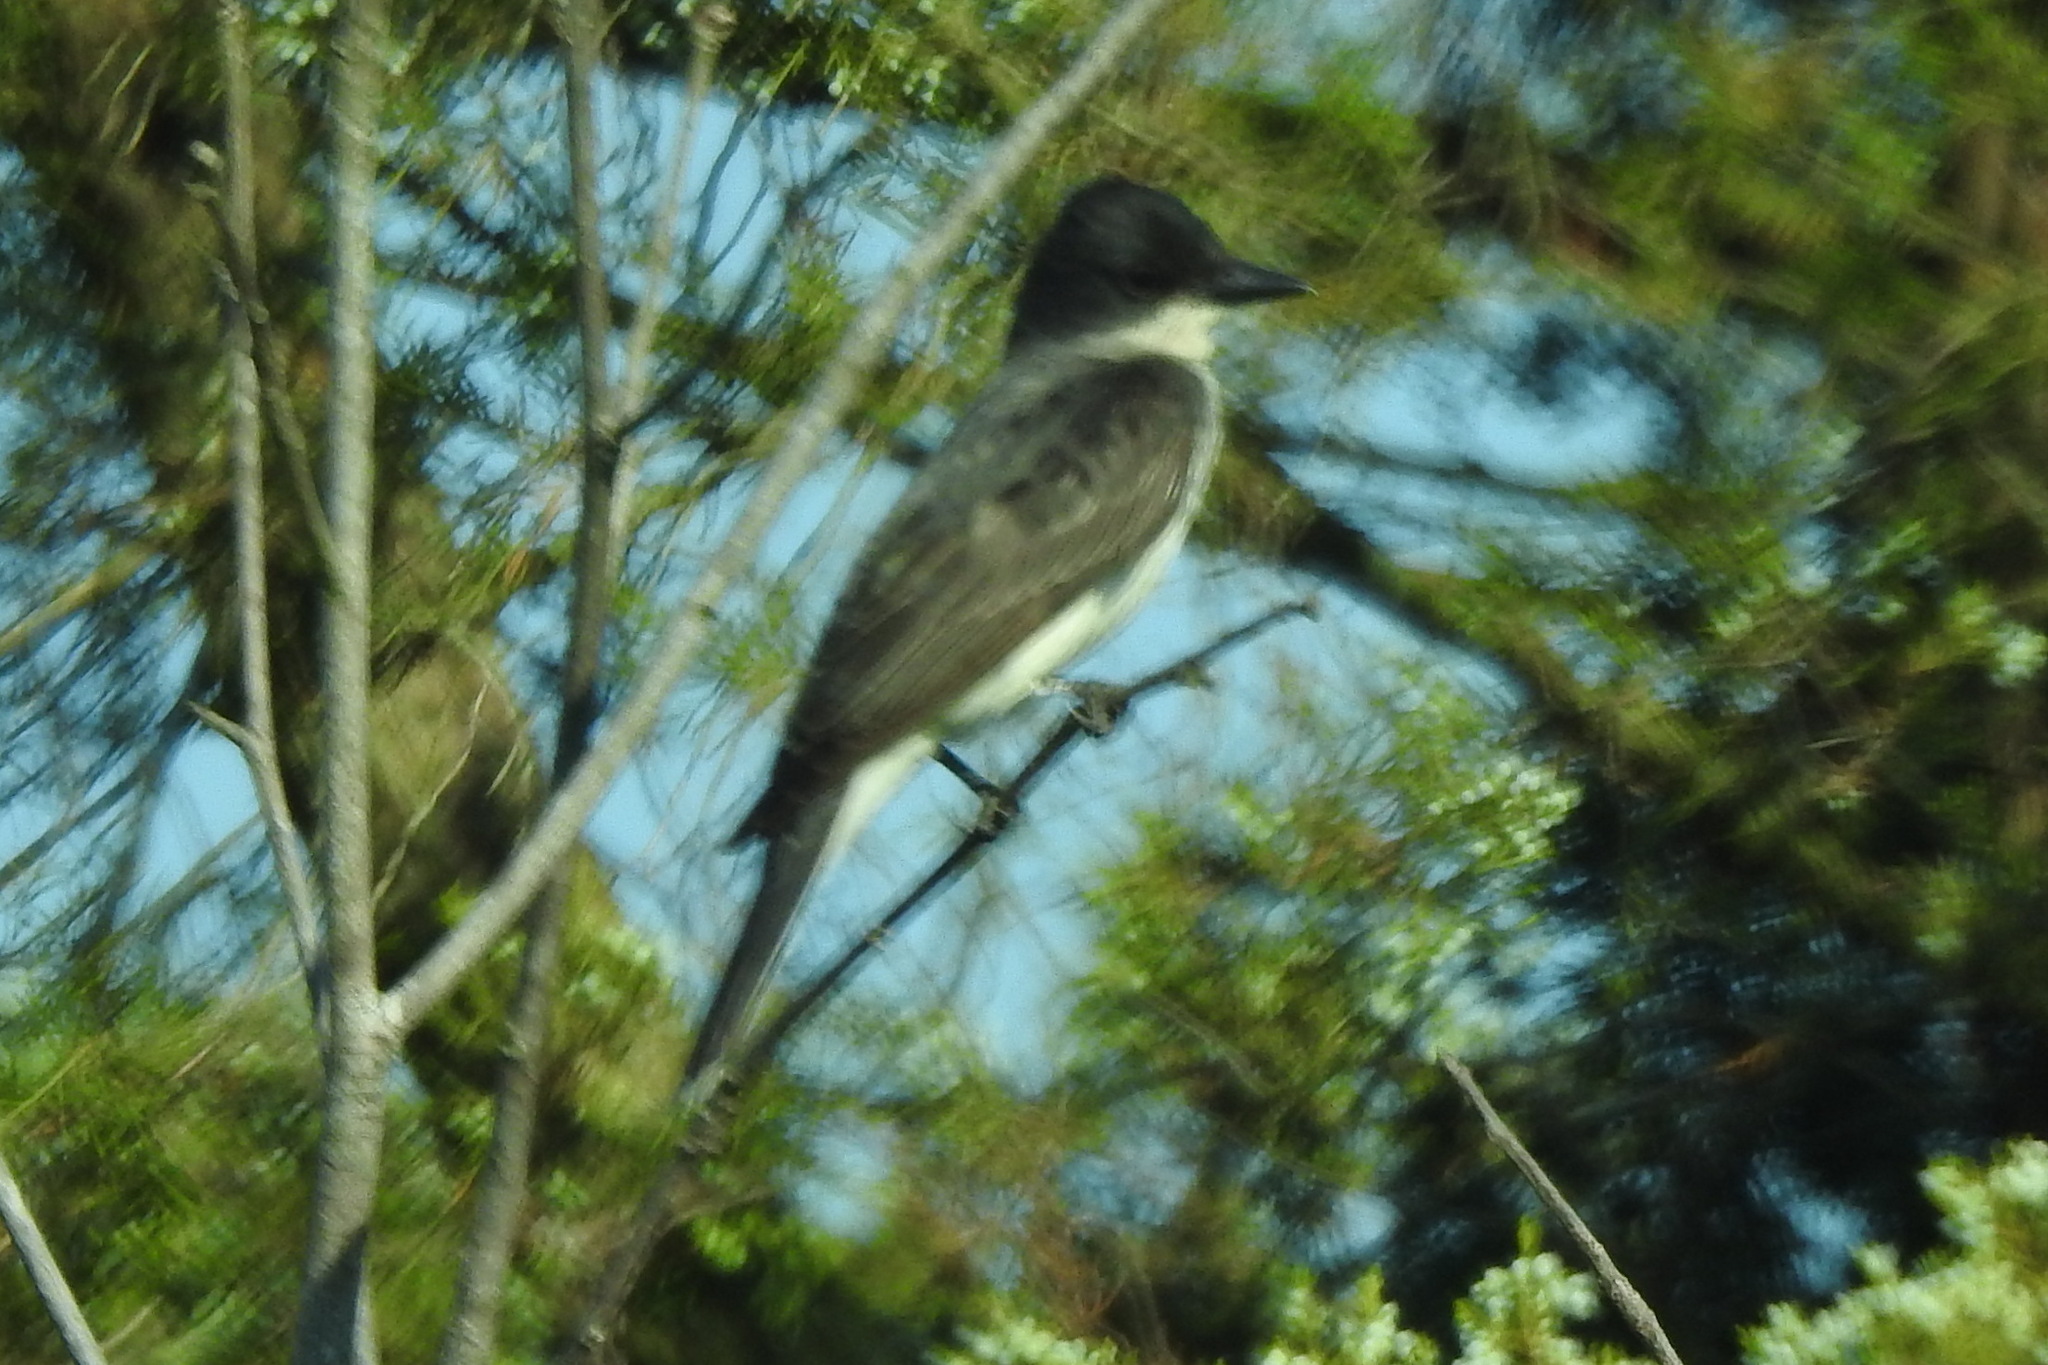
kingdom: Animalia
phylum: Chordata
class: Aves
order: Passeriformes
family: Tyrannidae
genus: Tyrannus
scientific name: Tyrannus tyrannus
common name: Eastern kingbird
